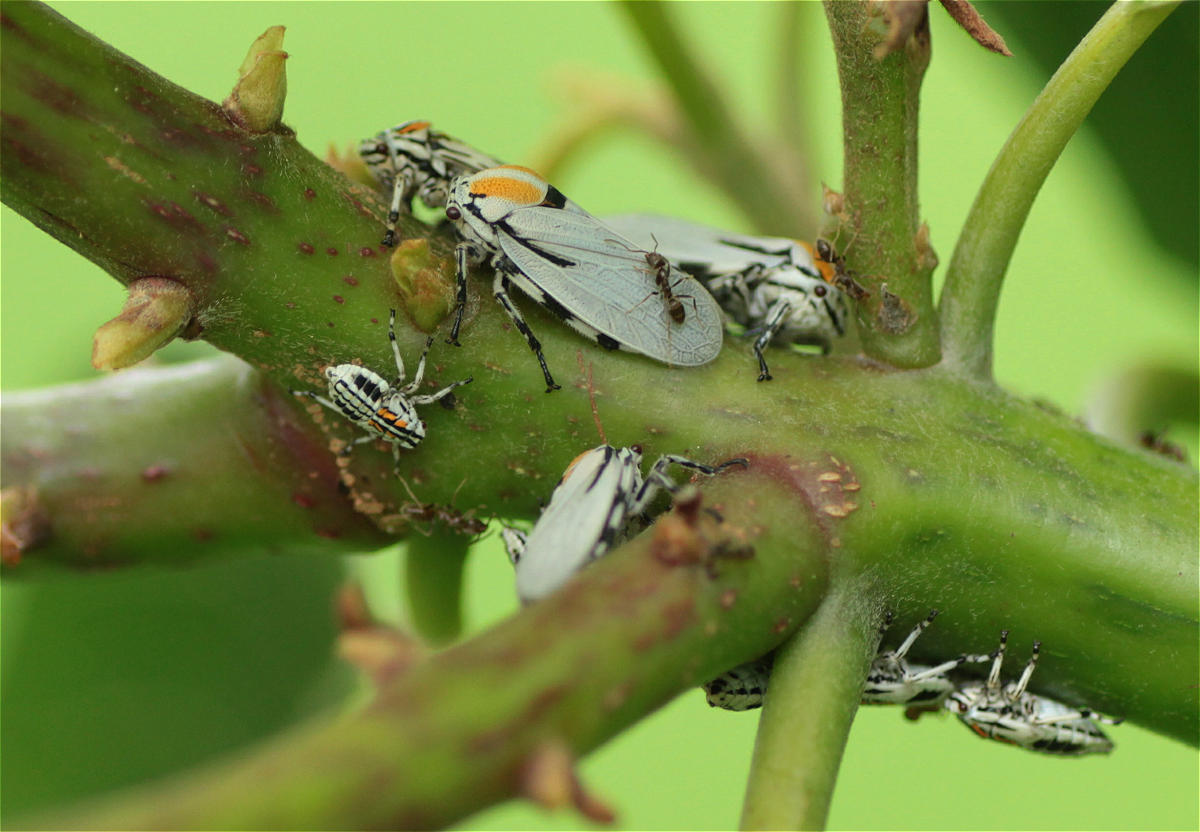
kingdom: Animalia
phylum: Arthropoda
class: Insecta
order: Hemiptera
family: Aetalionidae
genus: Aetalion
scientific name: Aetalion reticulatum
